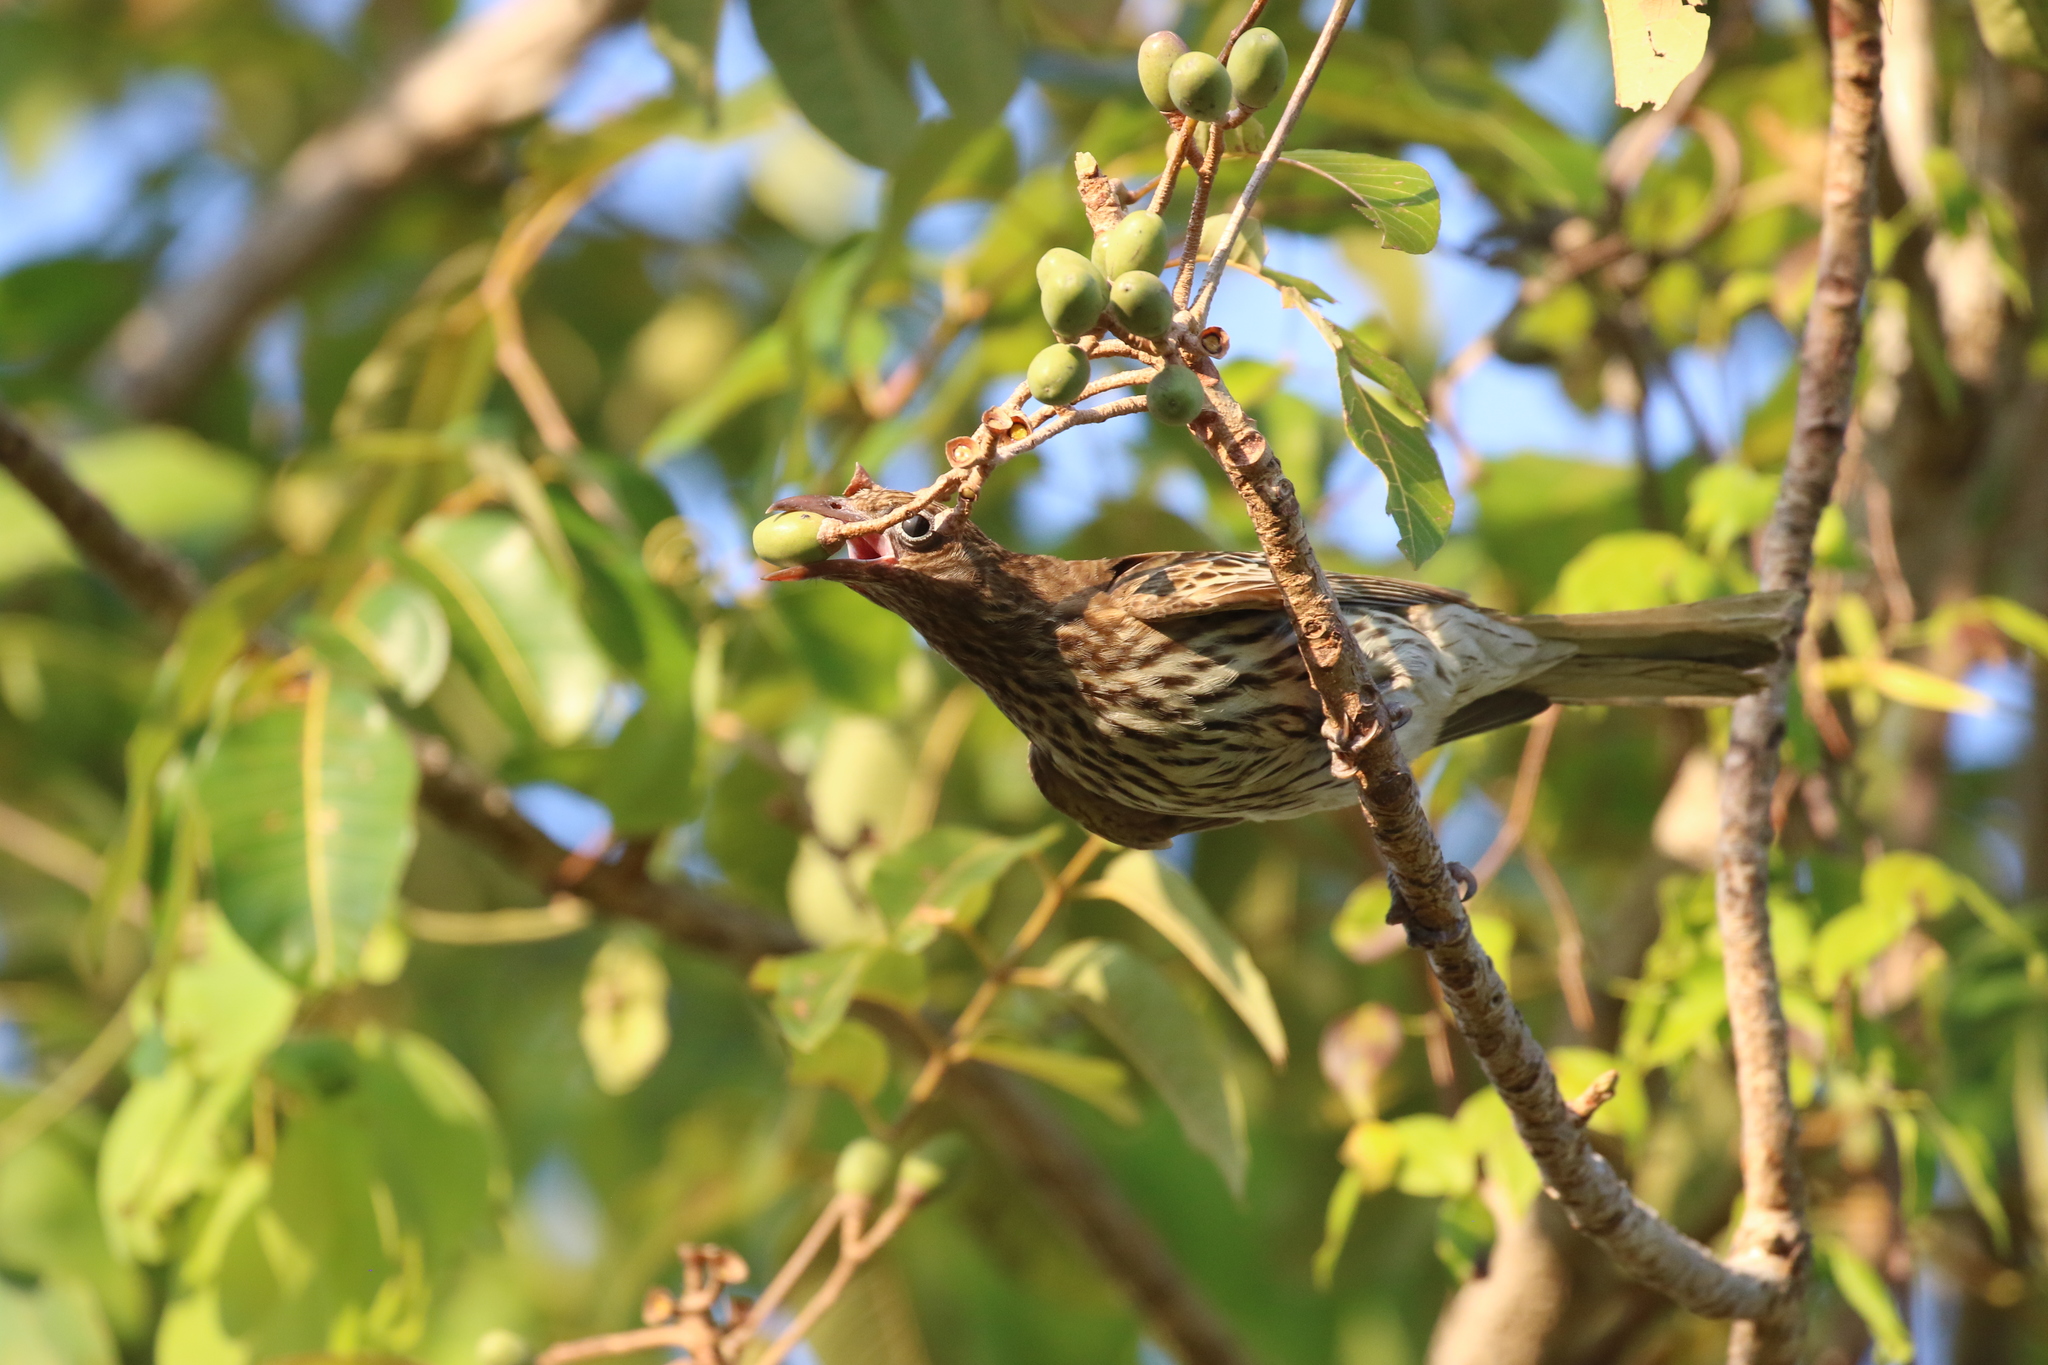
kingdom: Animalia
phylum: Chordata
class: Aves
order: Passeriformes
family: Oriolidae
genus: Sphecotheres
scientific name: Sphecotheres vieilloti
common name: Australasian figbird
